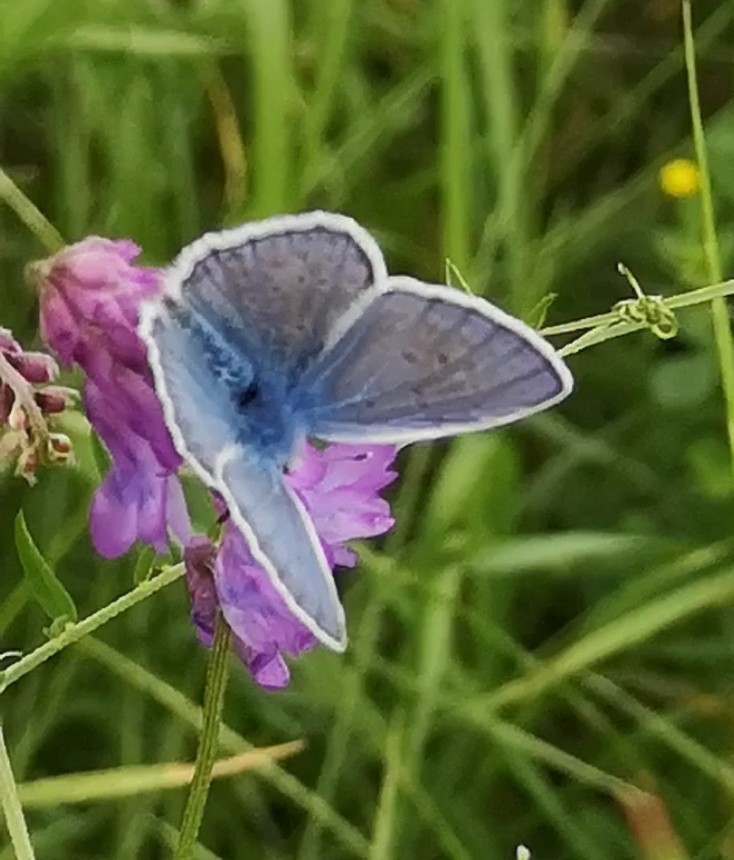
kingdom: Animalia
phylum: Arthropoda
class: Insecta
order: Lepidoptera
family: Lycaenidae
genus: Polyommatus
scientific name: Polyommatus icarus
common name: Common blue
